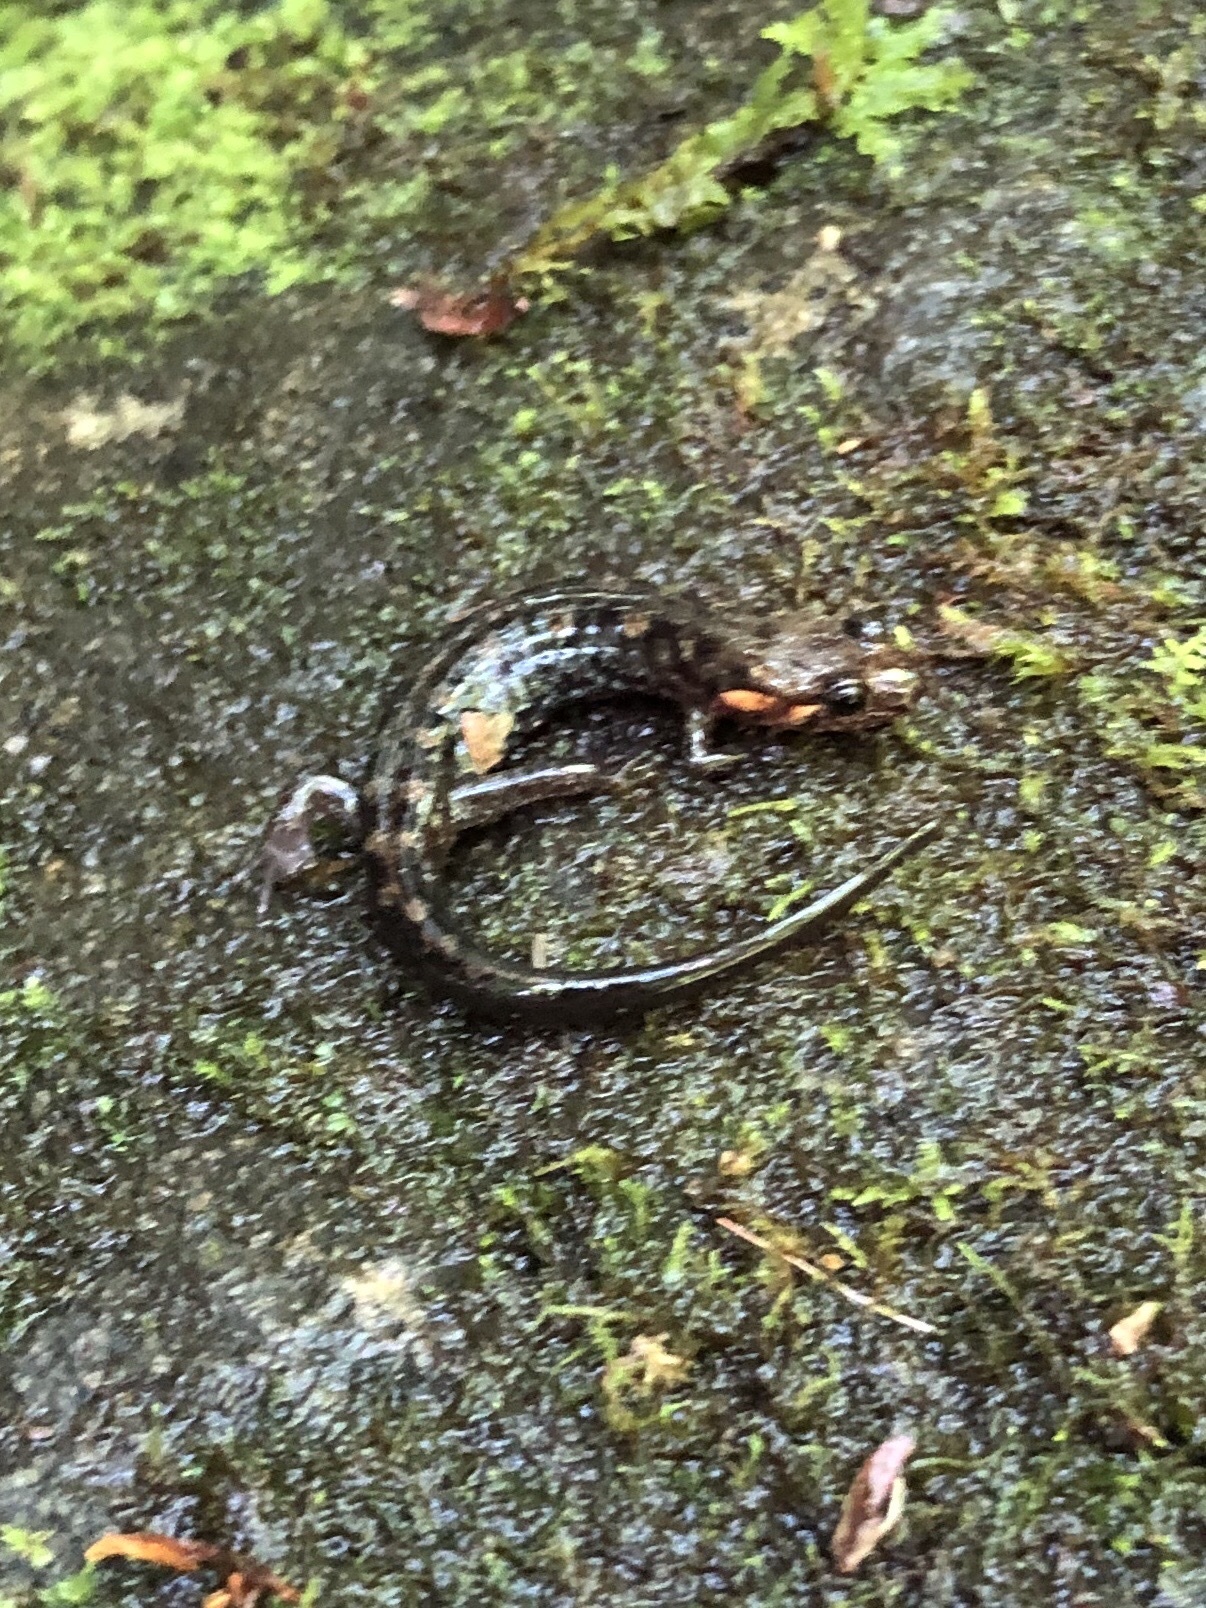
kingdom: Animalia
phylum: Chordata
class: Amphibia
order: Caudata
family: Plethodontidae
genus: Desmognathus
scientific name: Desmognathus imitator
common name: Imitator salamander
